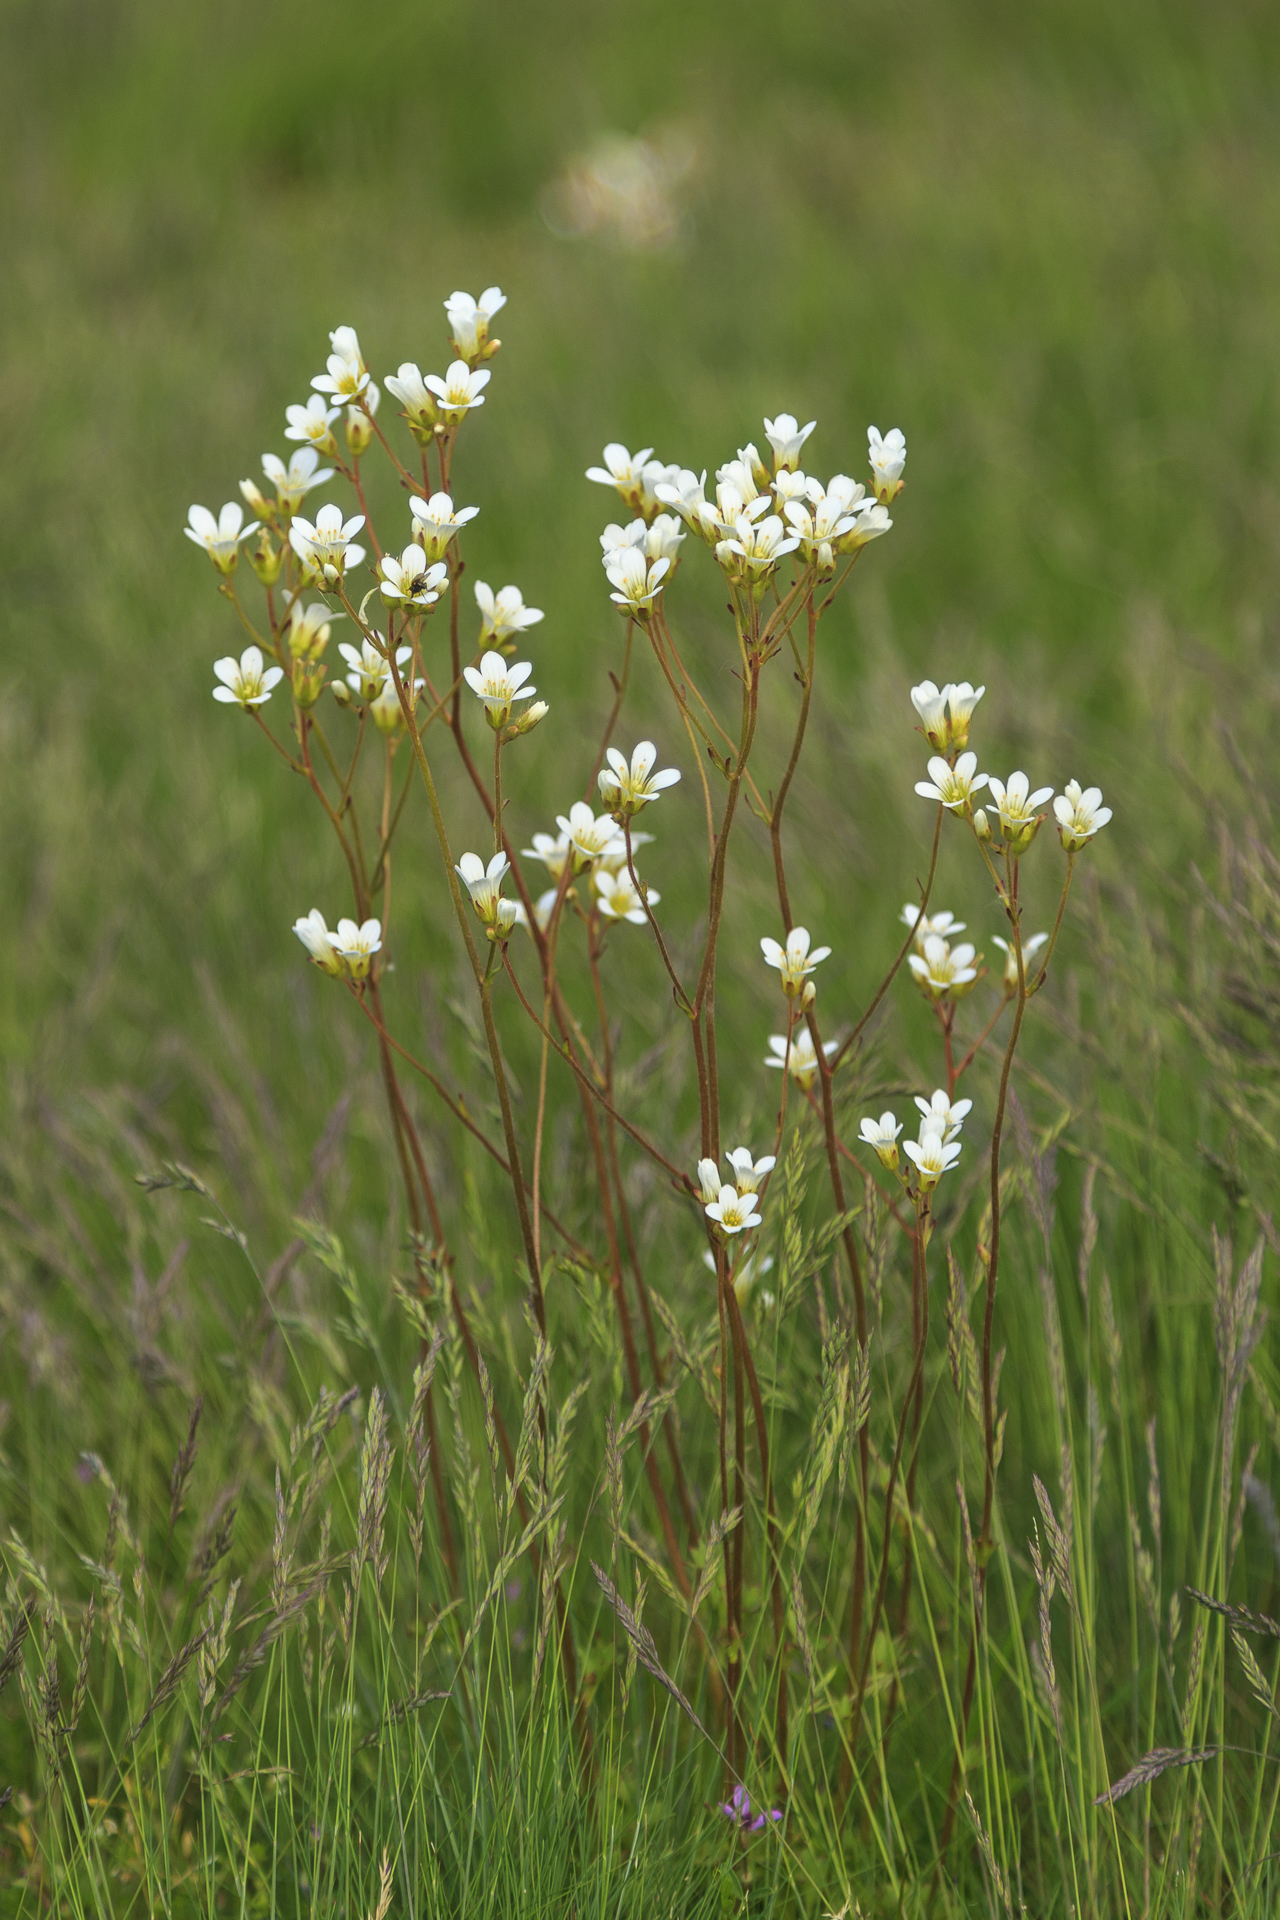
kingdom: Plantae
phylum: Tracheophyta
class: Magnoliopsida
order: Saxifragales
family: Saxifragaceae
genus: Saxifraga
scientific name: Saxifraga granulata
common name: Meadow saxifrage
